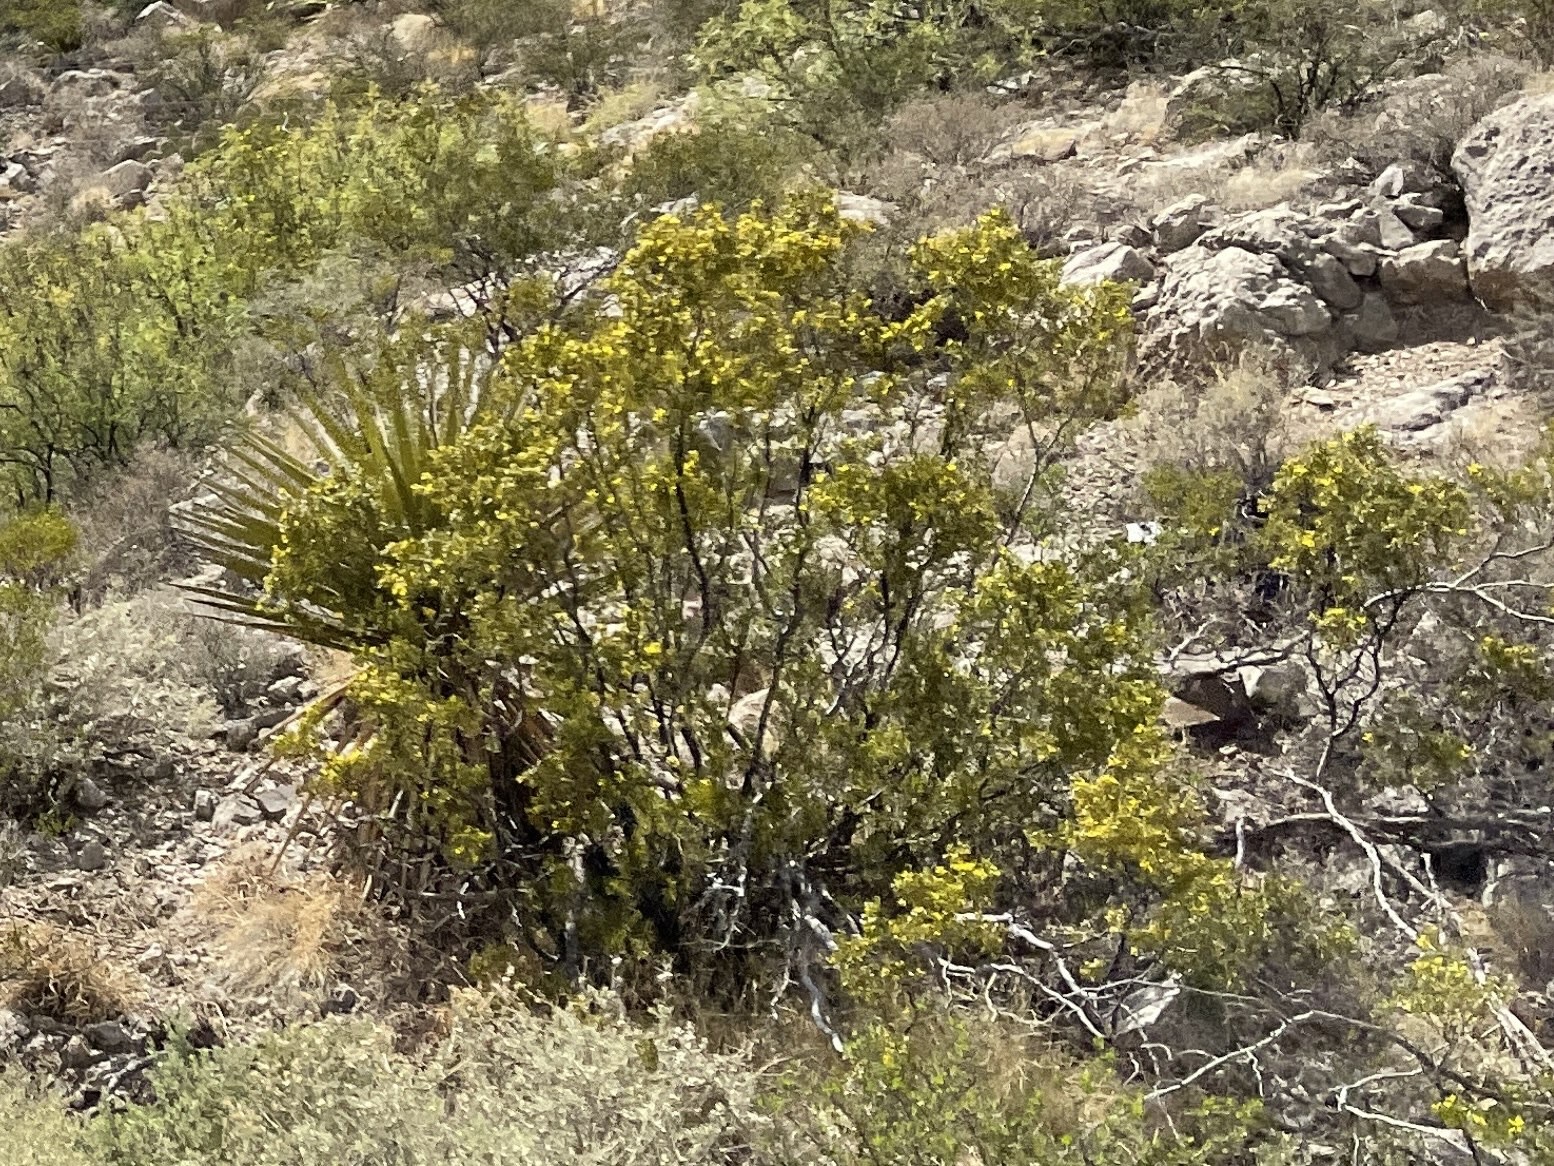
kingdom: Plantae
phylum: Tracheophyta
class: Magnoliopsida
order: Zygophyllales
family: Zygophyllaceae
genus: Larrea
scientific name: Larrea tridentata
